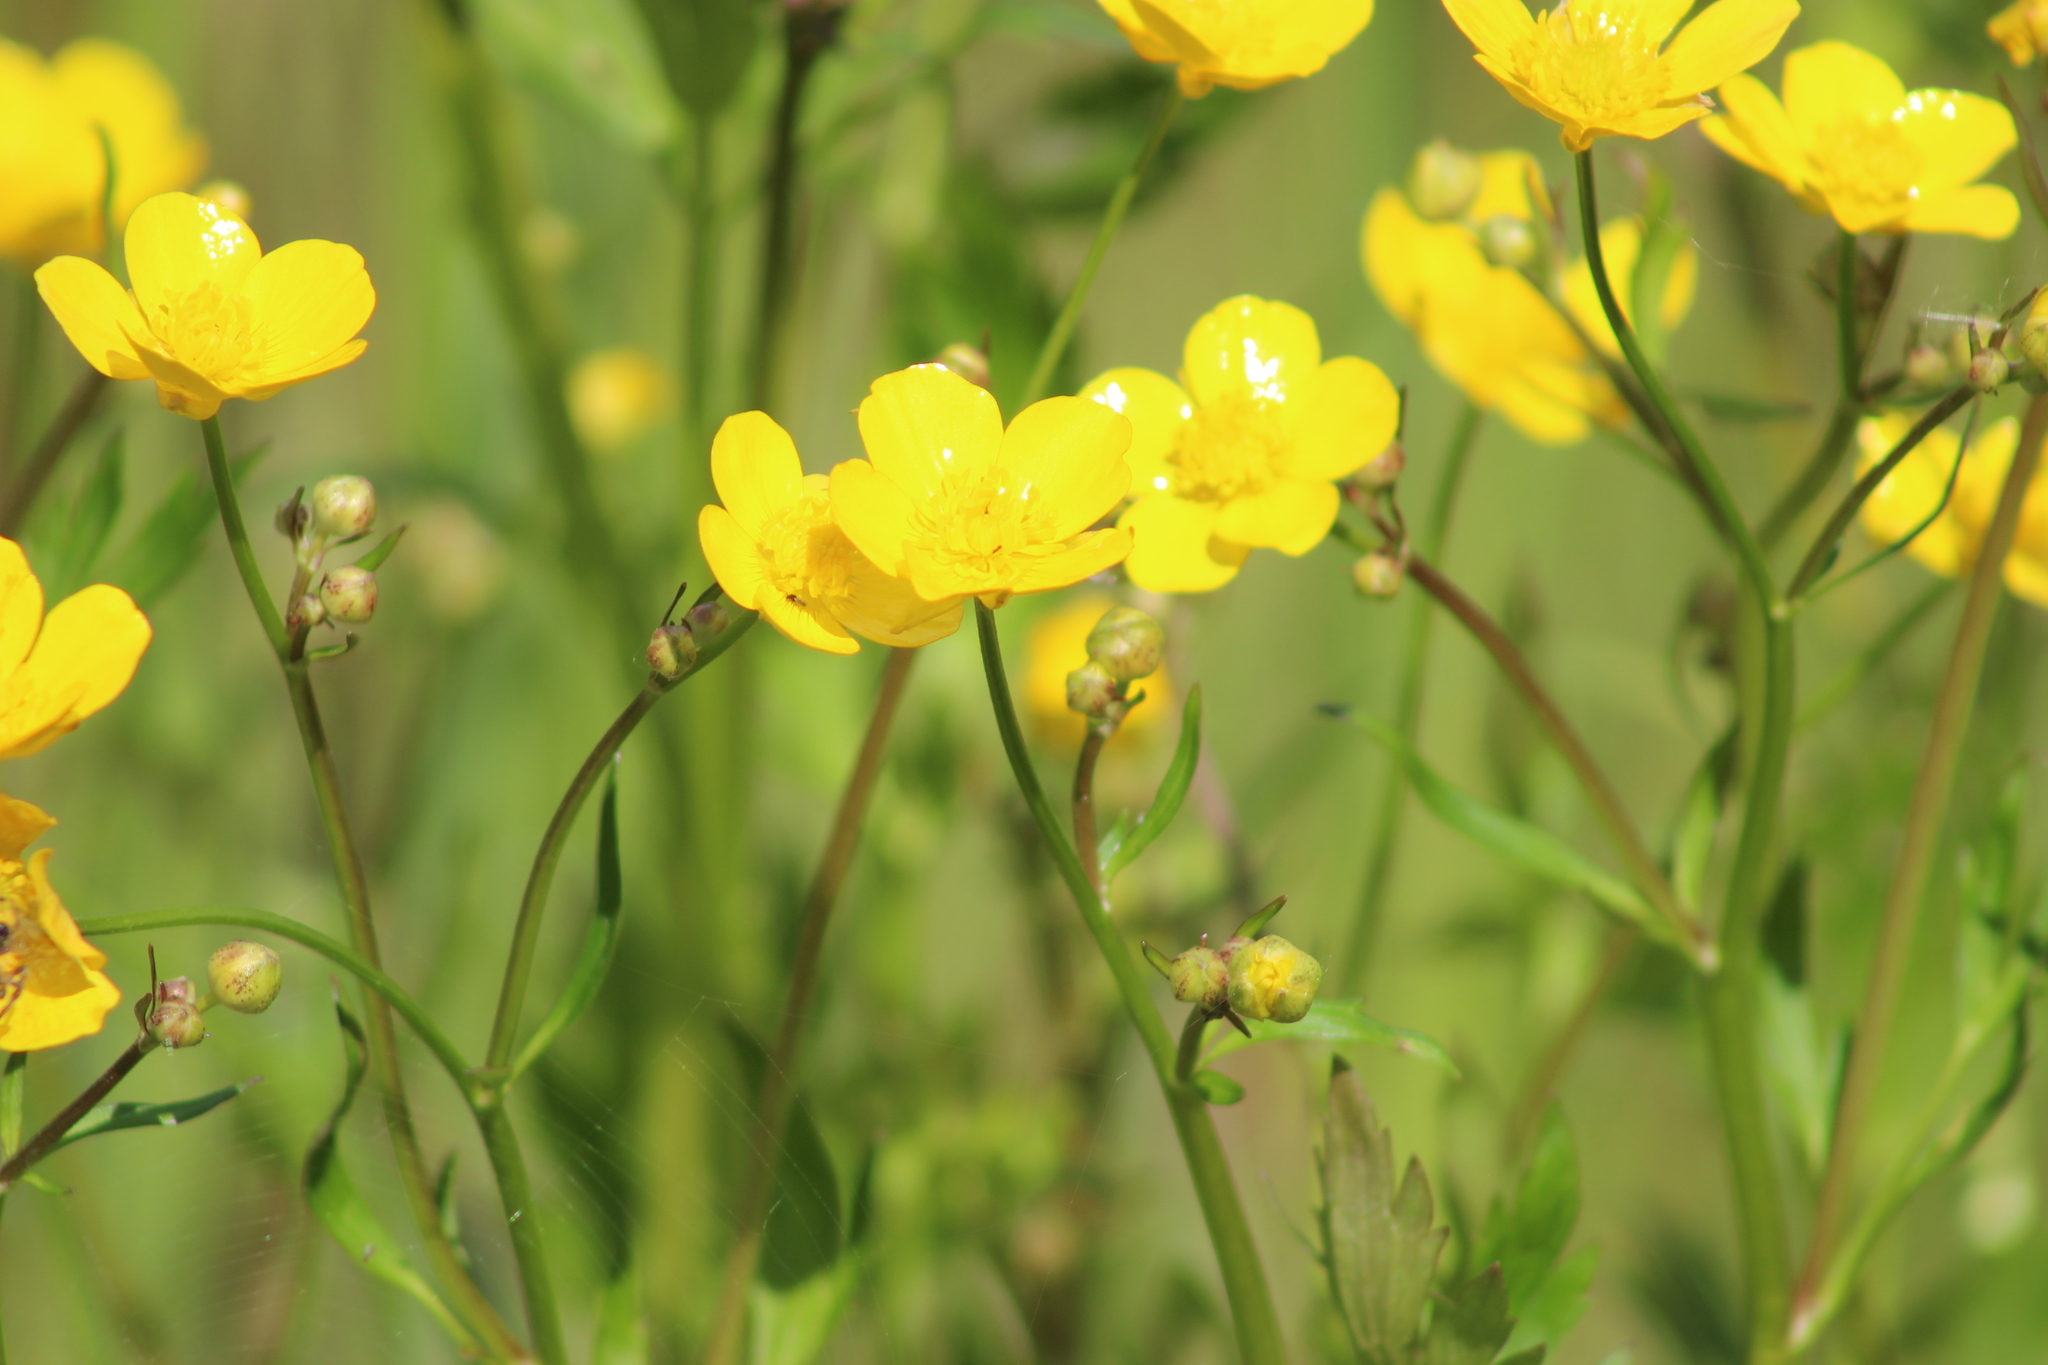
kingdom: Plantae
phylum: Tracheophyta
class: Magnoliopsida
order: Ranunculales
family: Ranunculaceae
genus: Ranunculus
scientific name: Ranunculus repens
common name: Creeping buttercup
